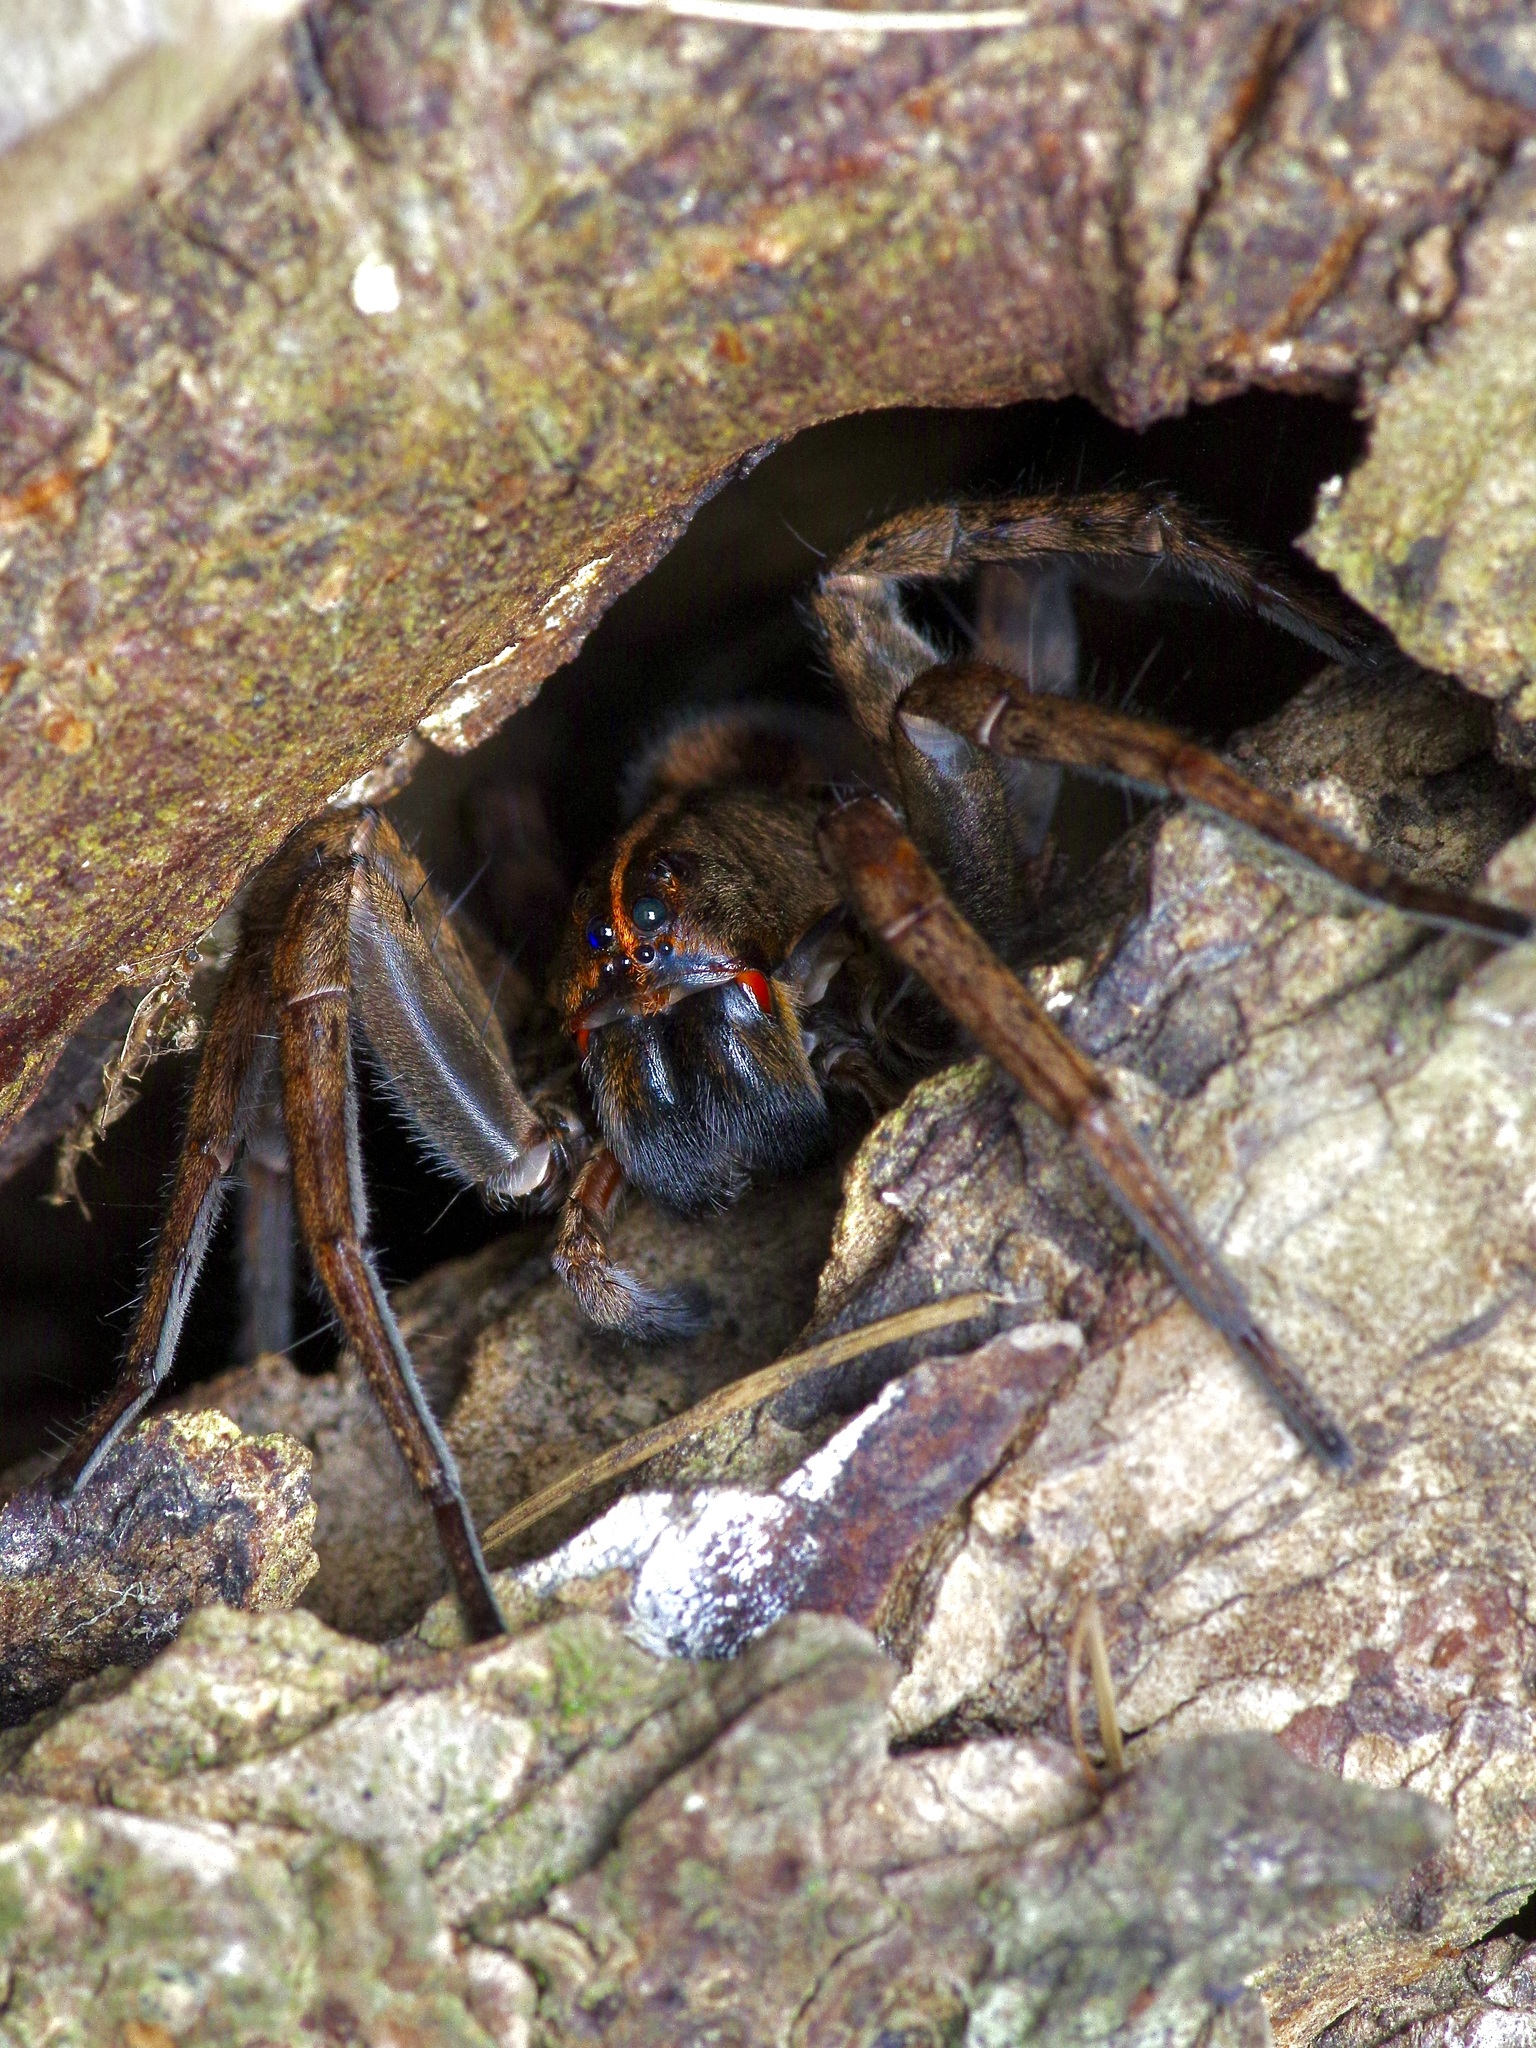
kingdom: Animalia
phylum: Arthropoda
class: Arachnida
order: Araneae
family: Lycosidae
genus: Tigrosa
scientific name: Tigrosa georgicola
